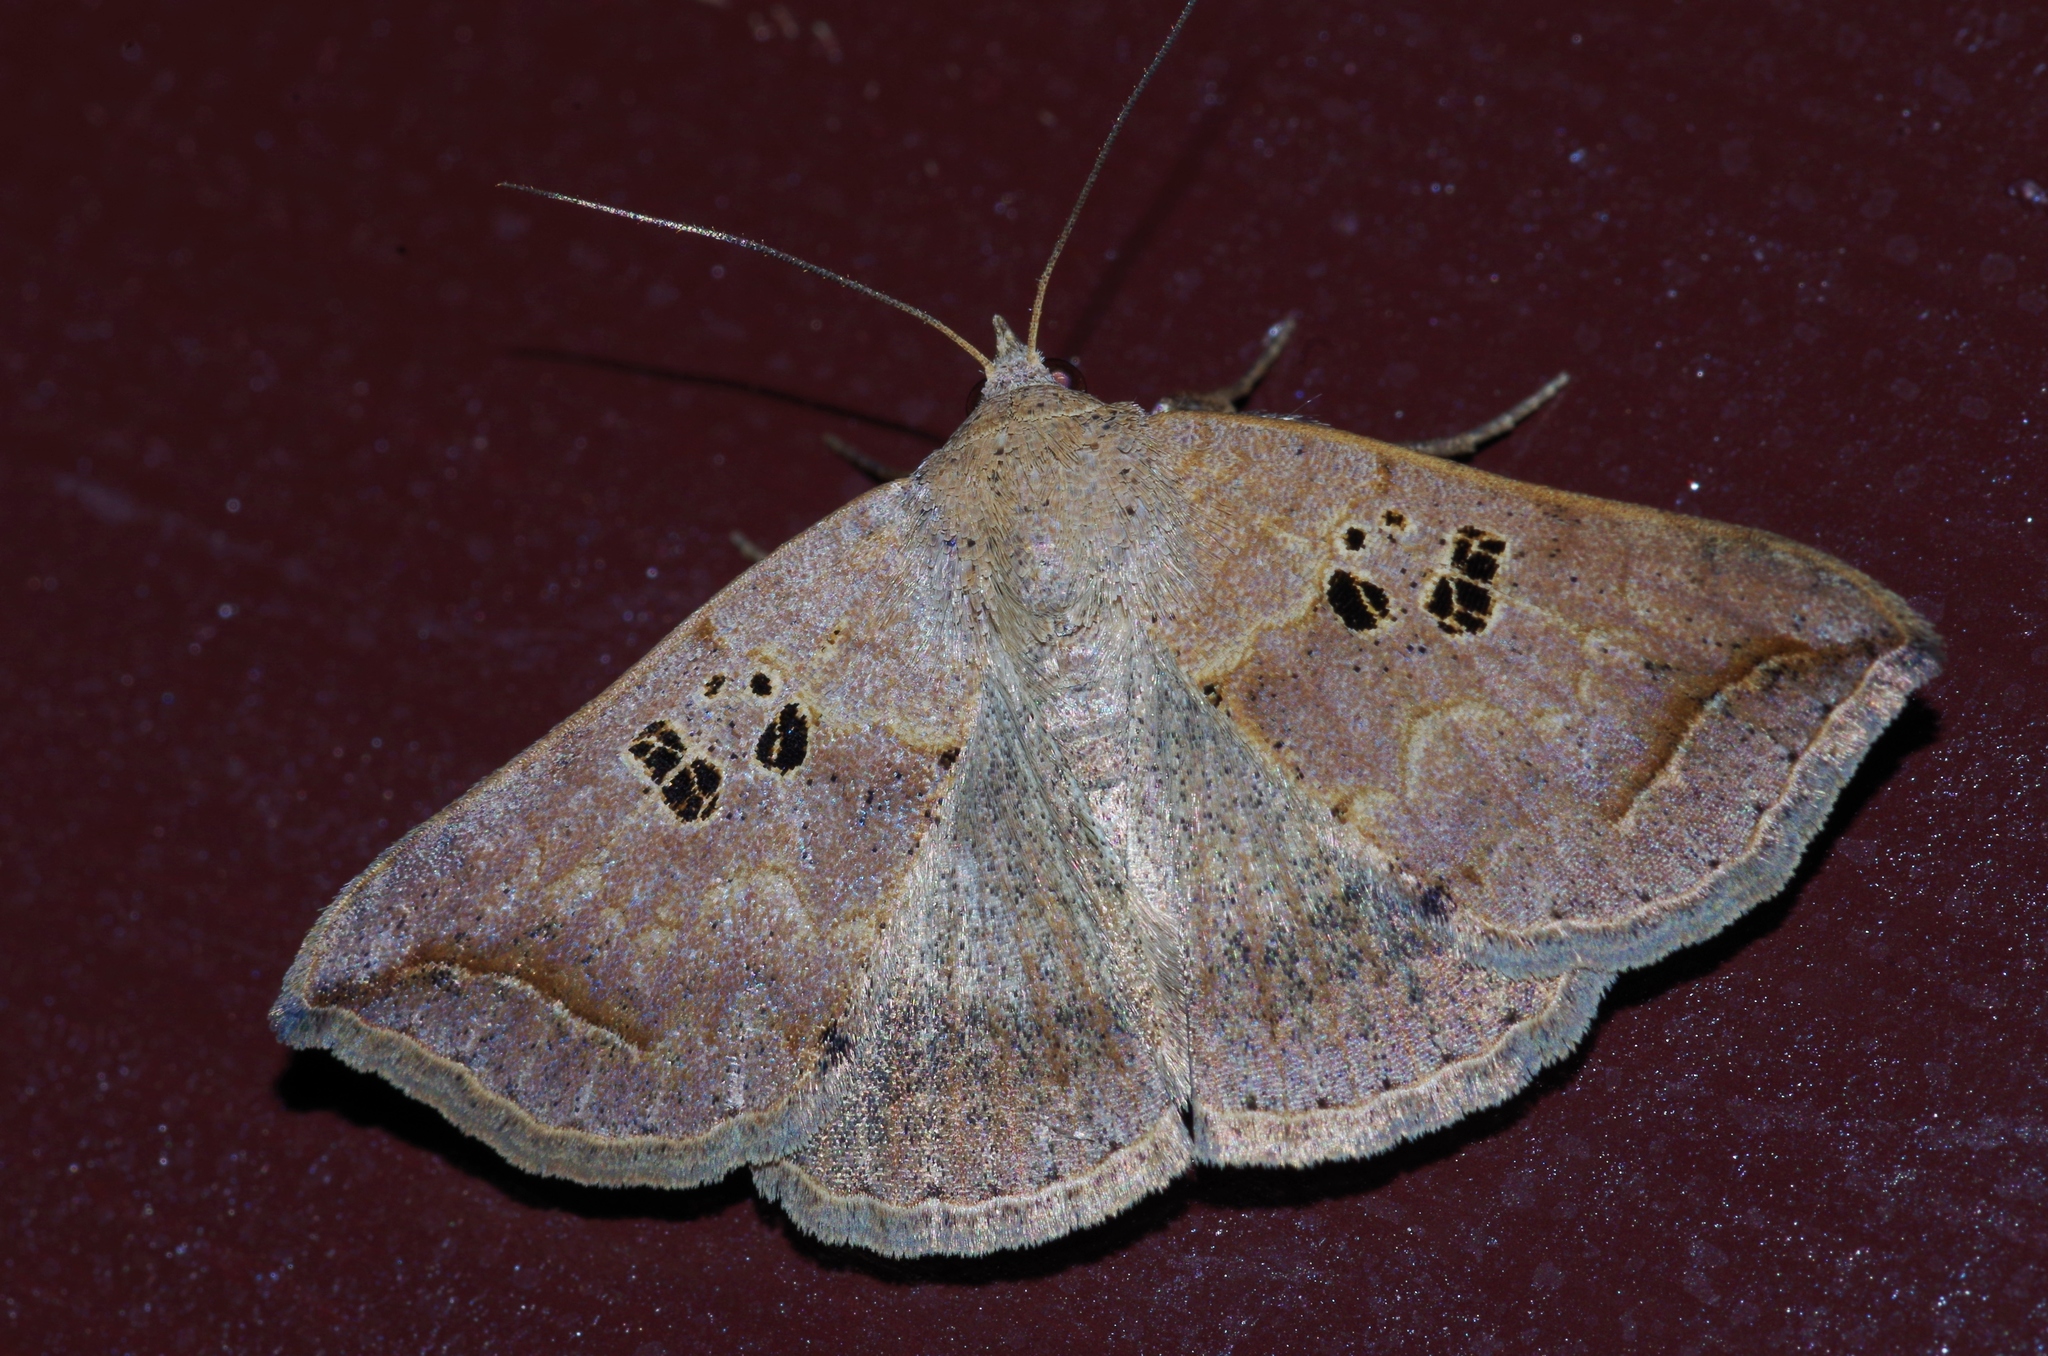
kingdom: Animalia
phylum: Arthropoda
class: Insecta
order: Lepidoptera
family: Erebidae
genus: Blasticorhinus
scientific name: Blasticorhinus rivulosa
